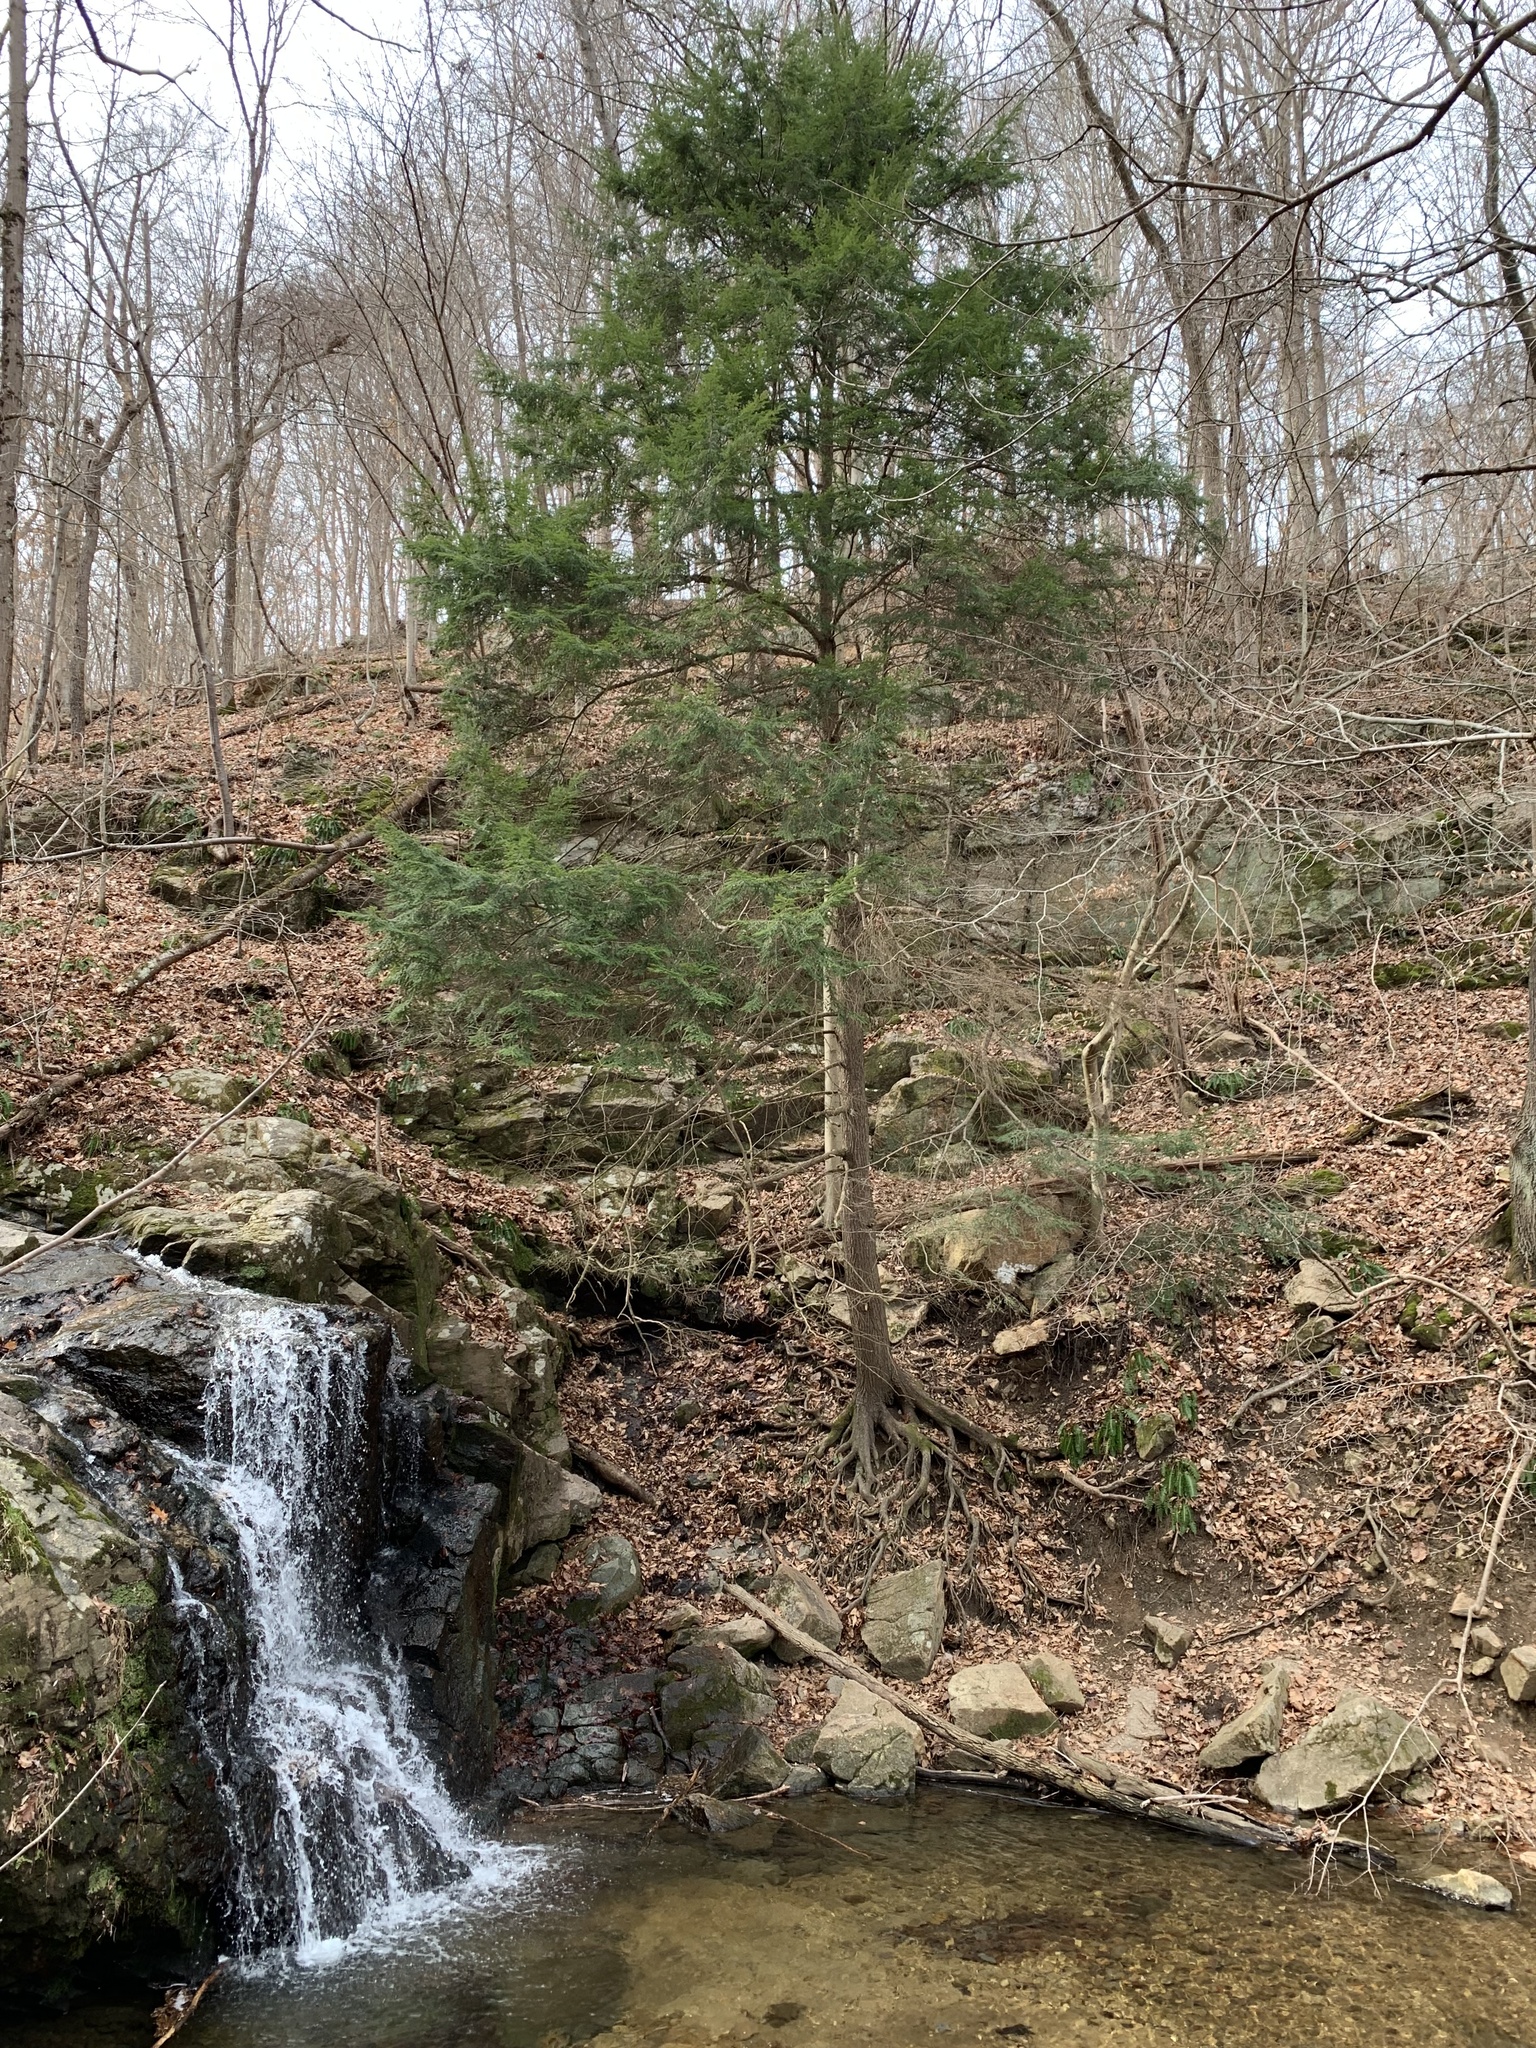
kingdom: Plantae
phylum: Tracheophyta
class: Pinopsida
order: Pinales
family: Pinaceae
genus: Tsuga
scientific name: Tsuga canadensis
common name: Eastern hemlock
